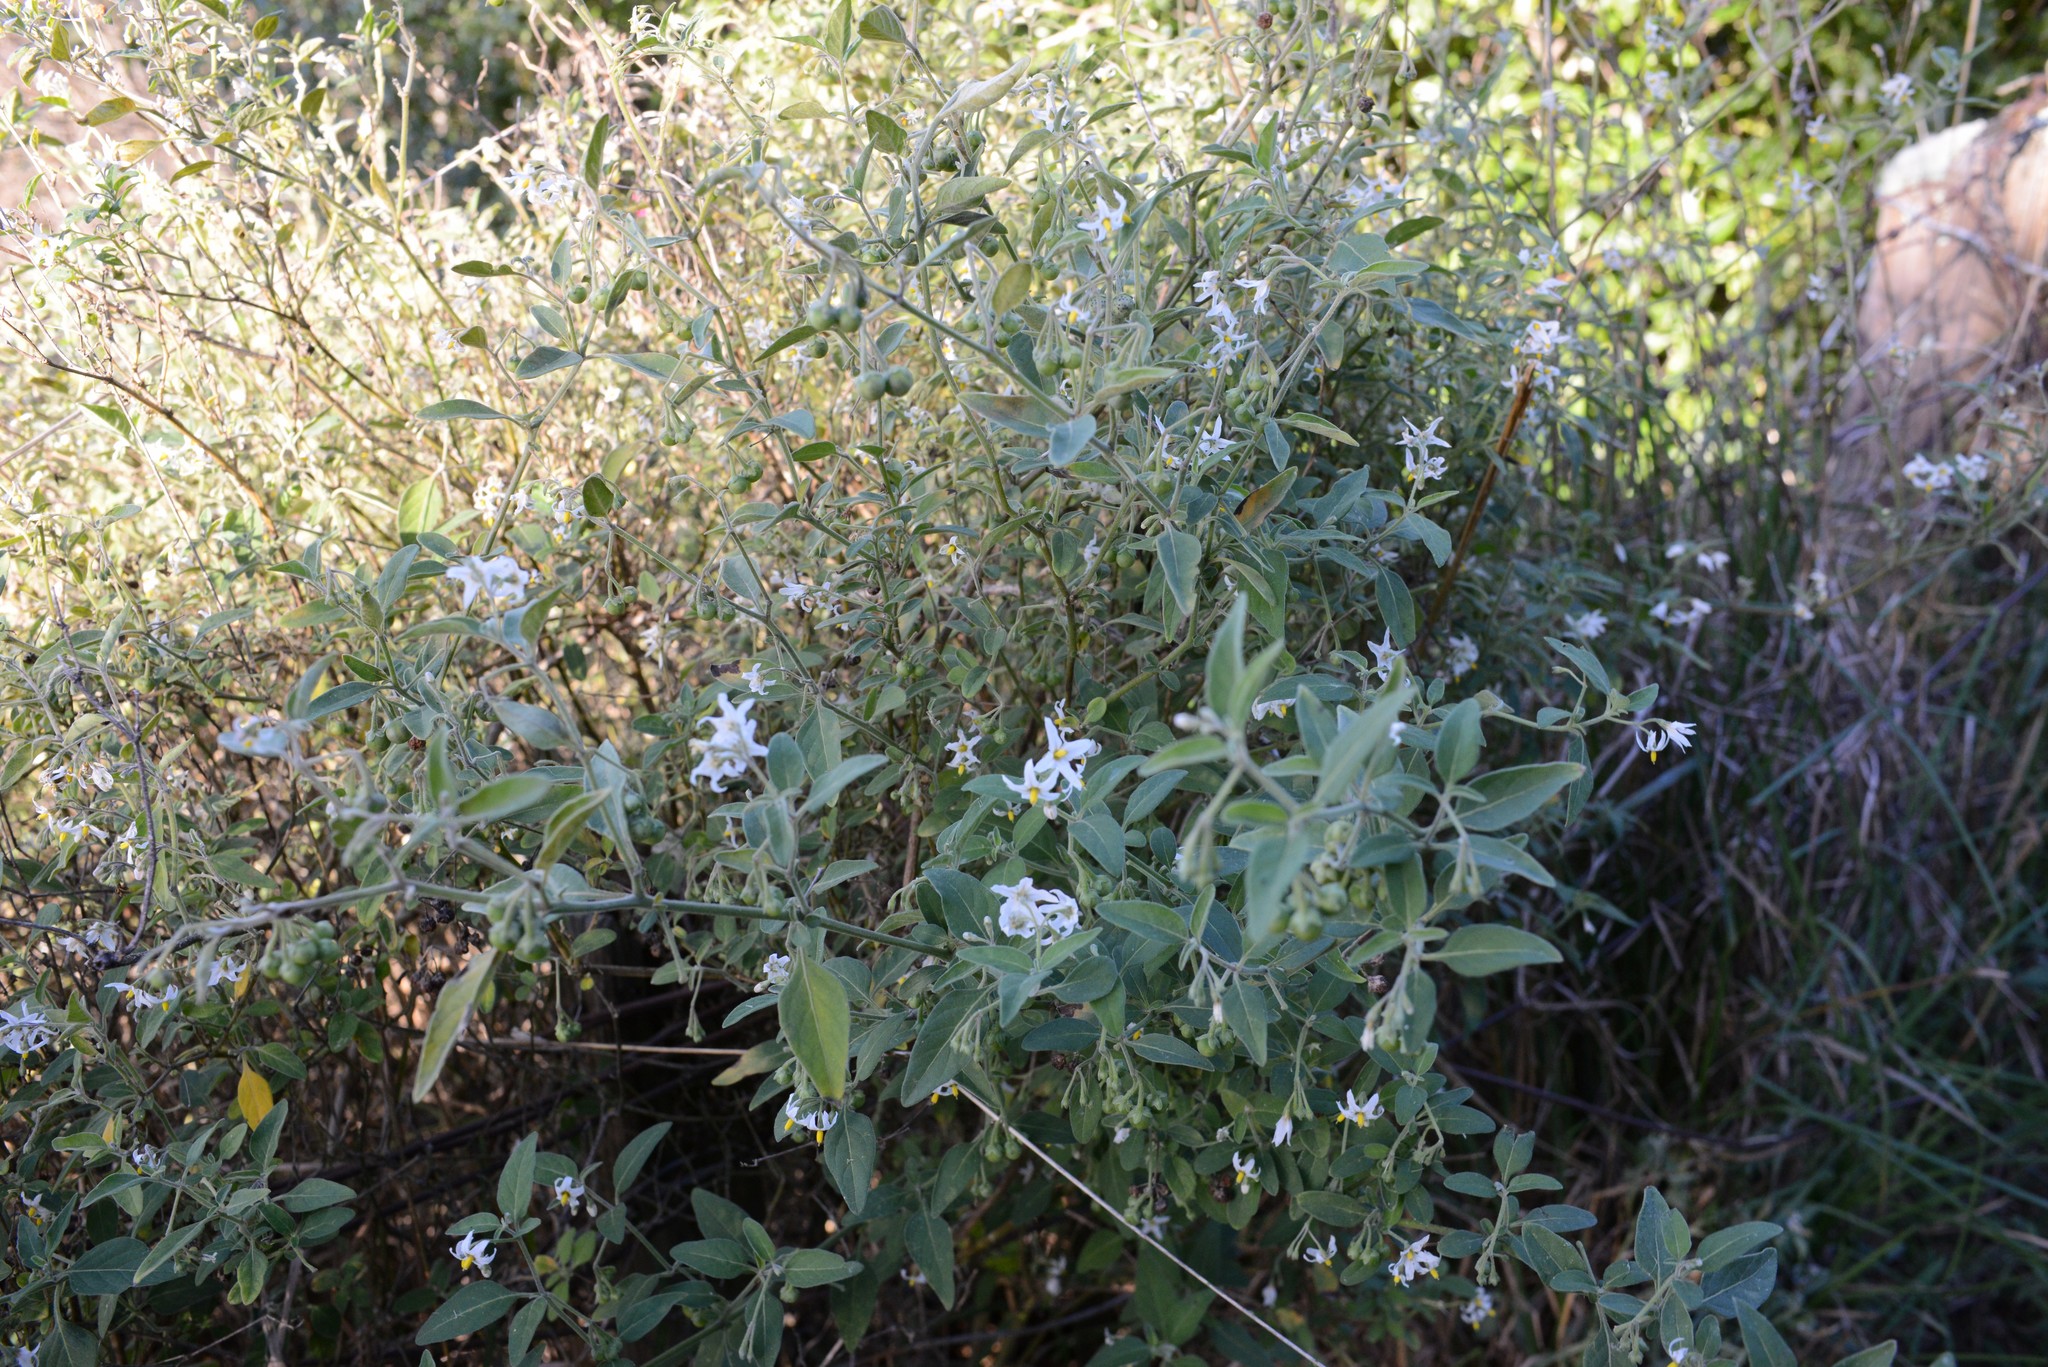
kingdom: Plantae
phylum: Tracheophyta
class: Magnoliopsida
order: Solanales
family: Solanaceae
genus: Solanum
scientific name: Solanum chenopodioides
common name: Tall nightshade
